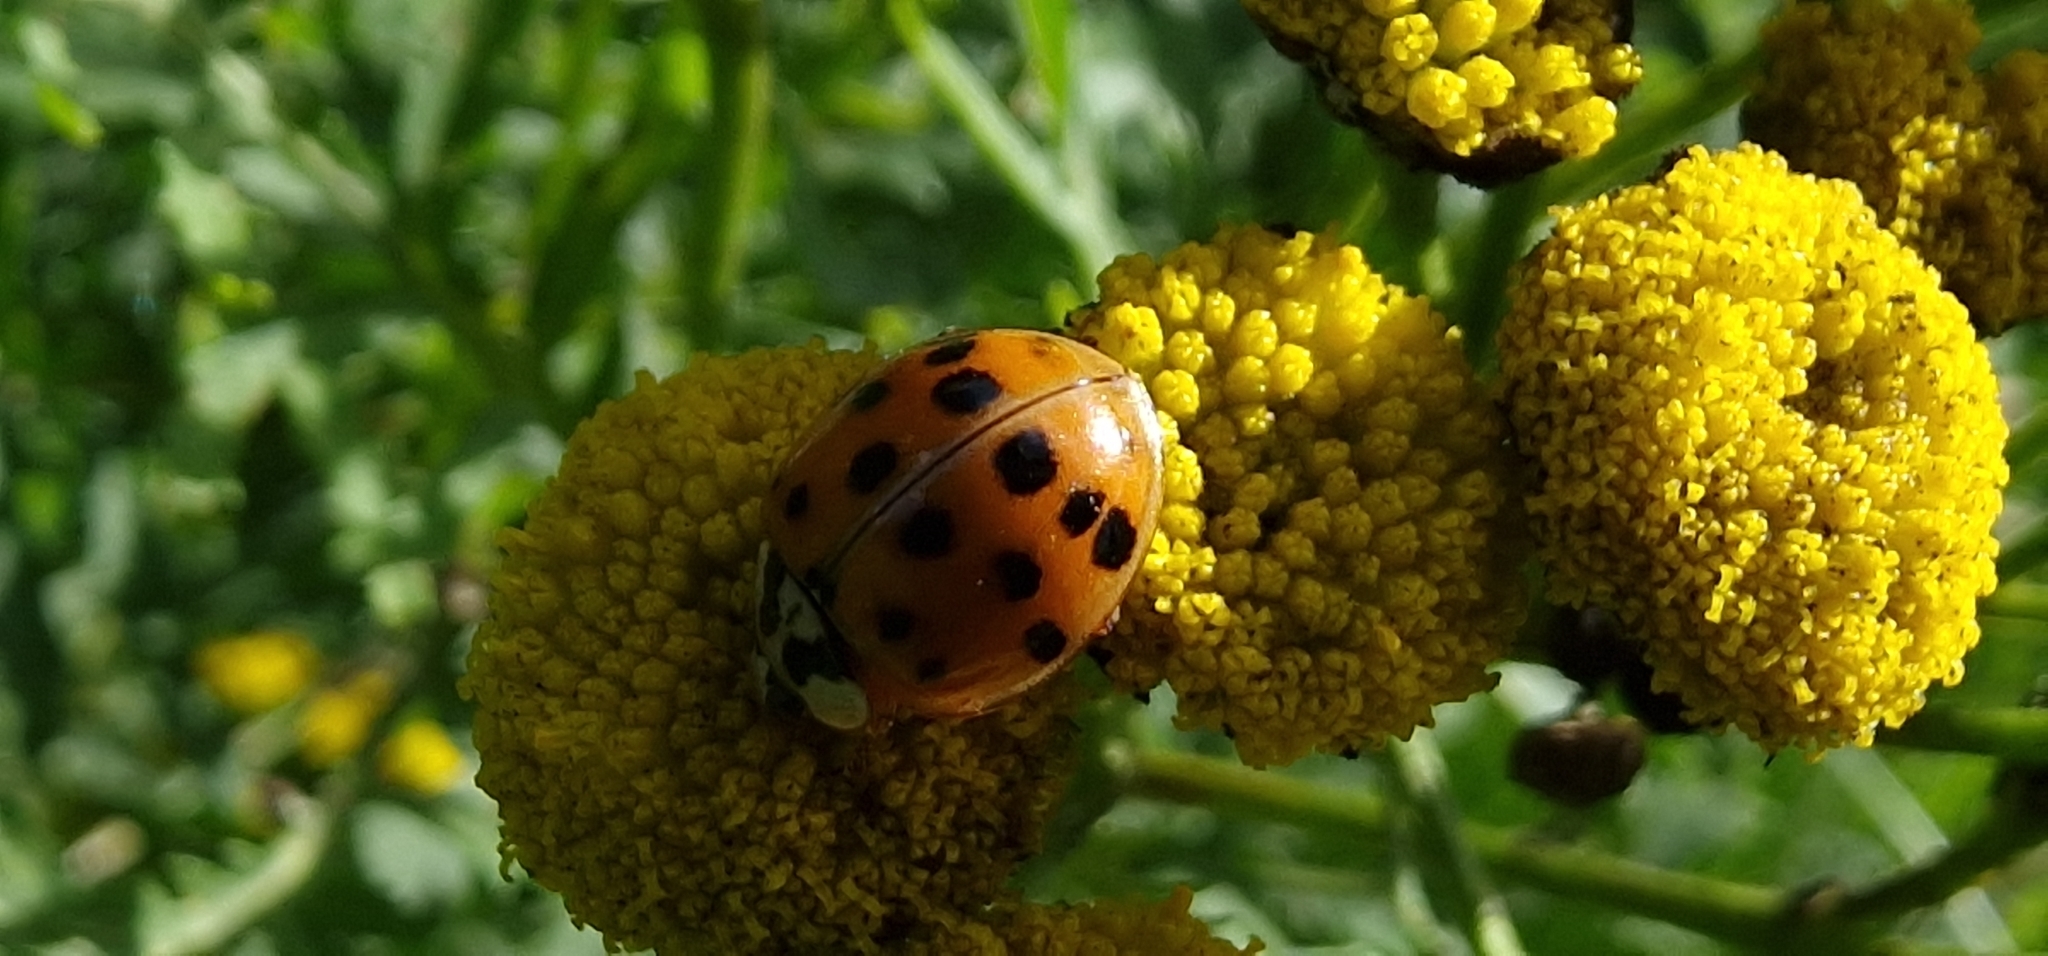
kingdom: Animalia
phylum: Arthropoda
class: Insecta
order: Coleoptera
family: Coccinellidae
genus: Harmonia
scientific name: Harmonia axyridis
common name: Harlequin ladybird
